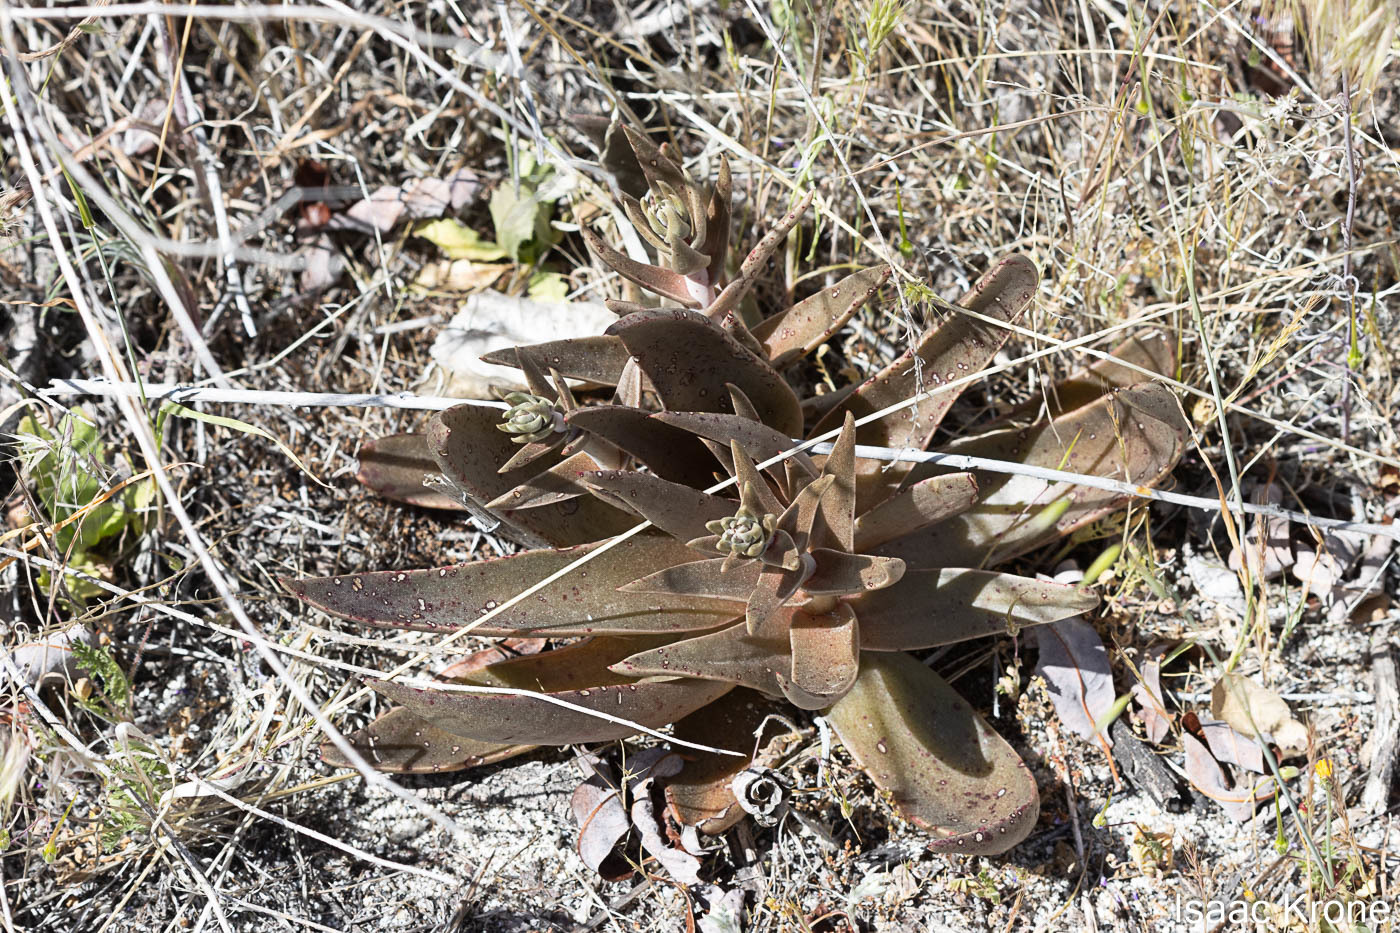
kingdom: Plantae
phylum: Tracheophyta
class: Magnoliopsida
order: Saxifragales
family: Crassulaceae
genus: Dudleya
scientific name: Dudleya saxosa
